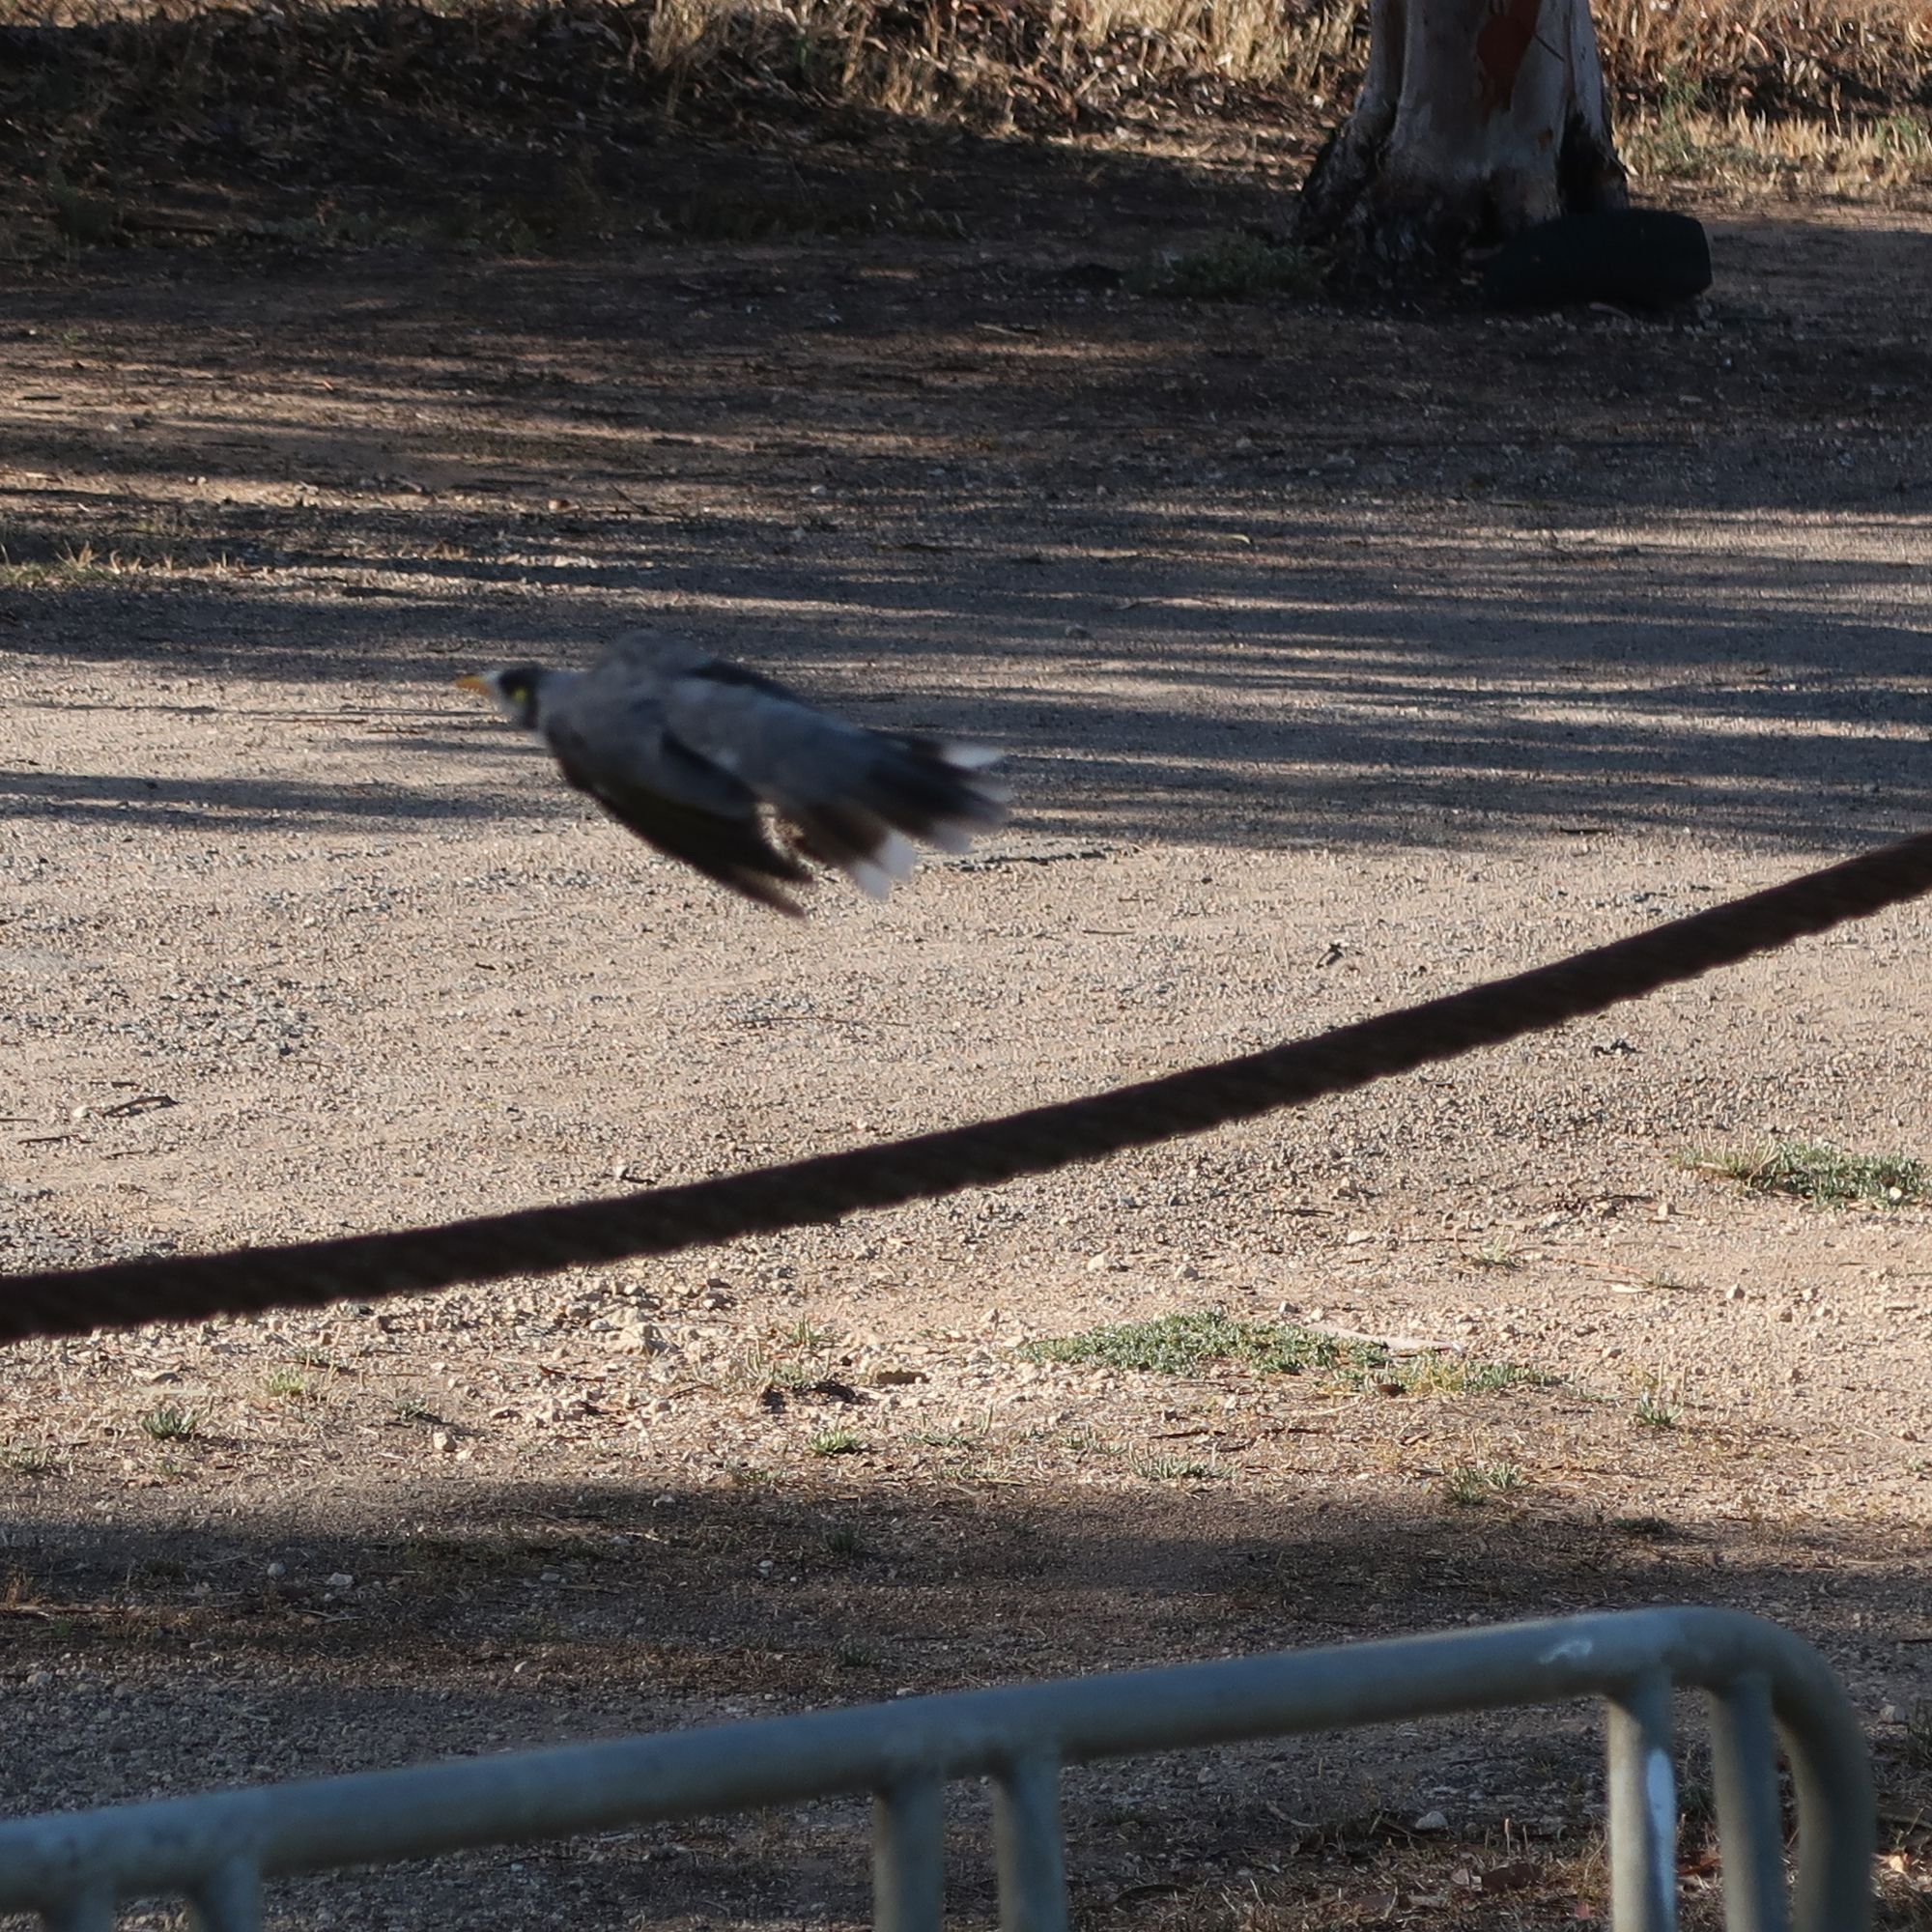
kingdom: Animalia
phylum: Chordata
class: Aves
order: Passeriformes
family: Meliphagidae
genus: Manorina
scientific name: Manorina melanocephala
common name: Noisy miner
